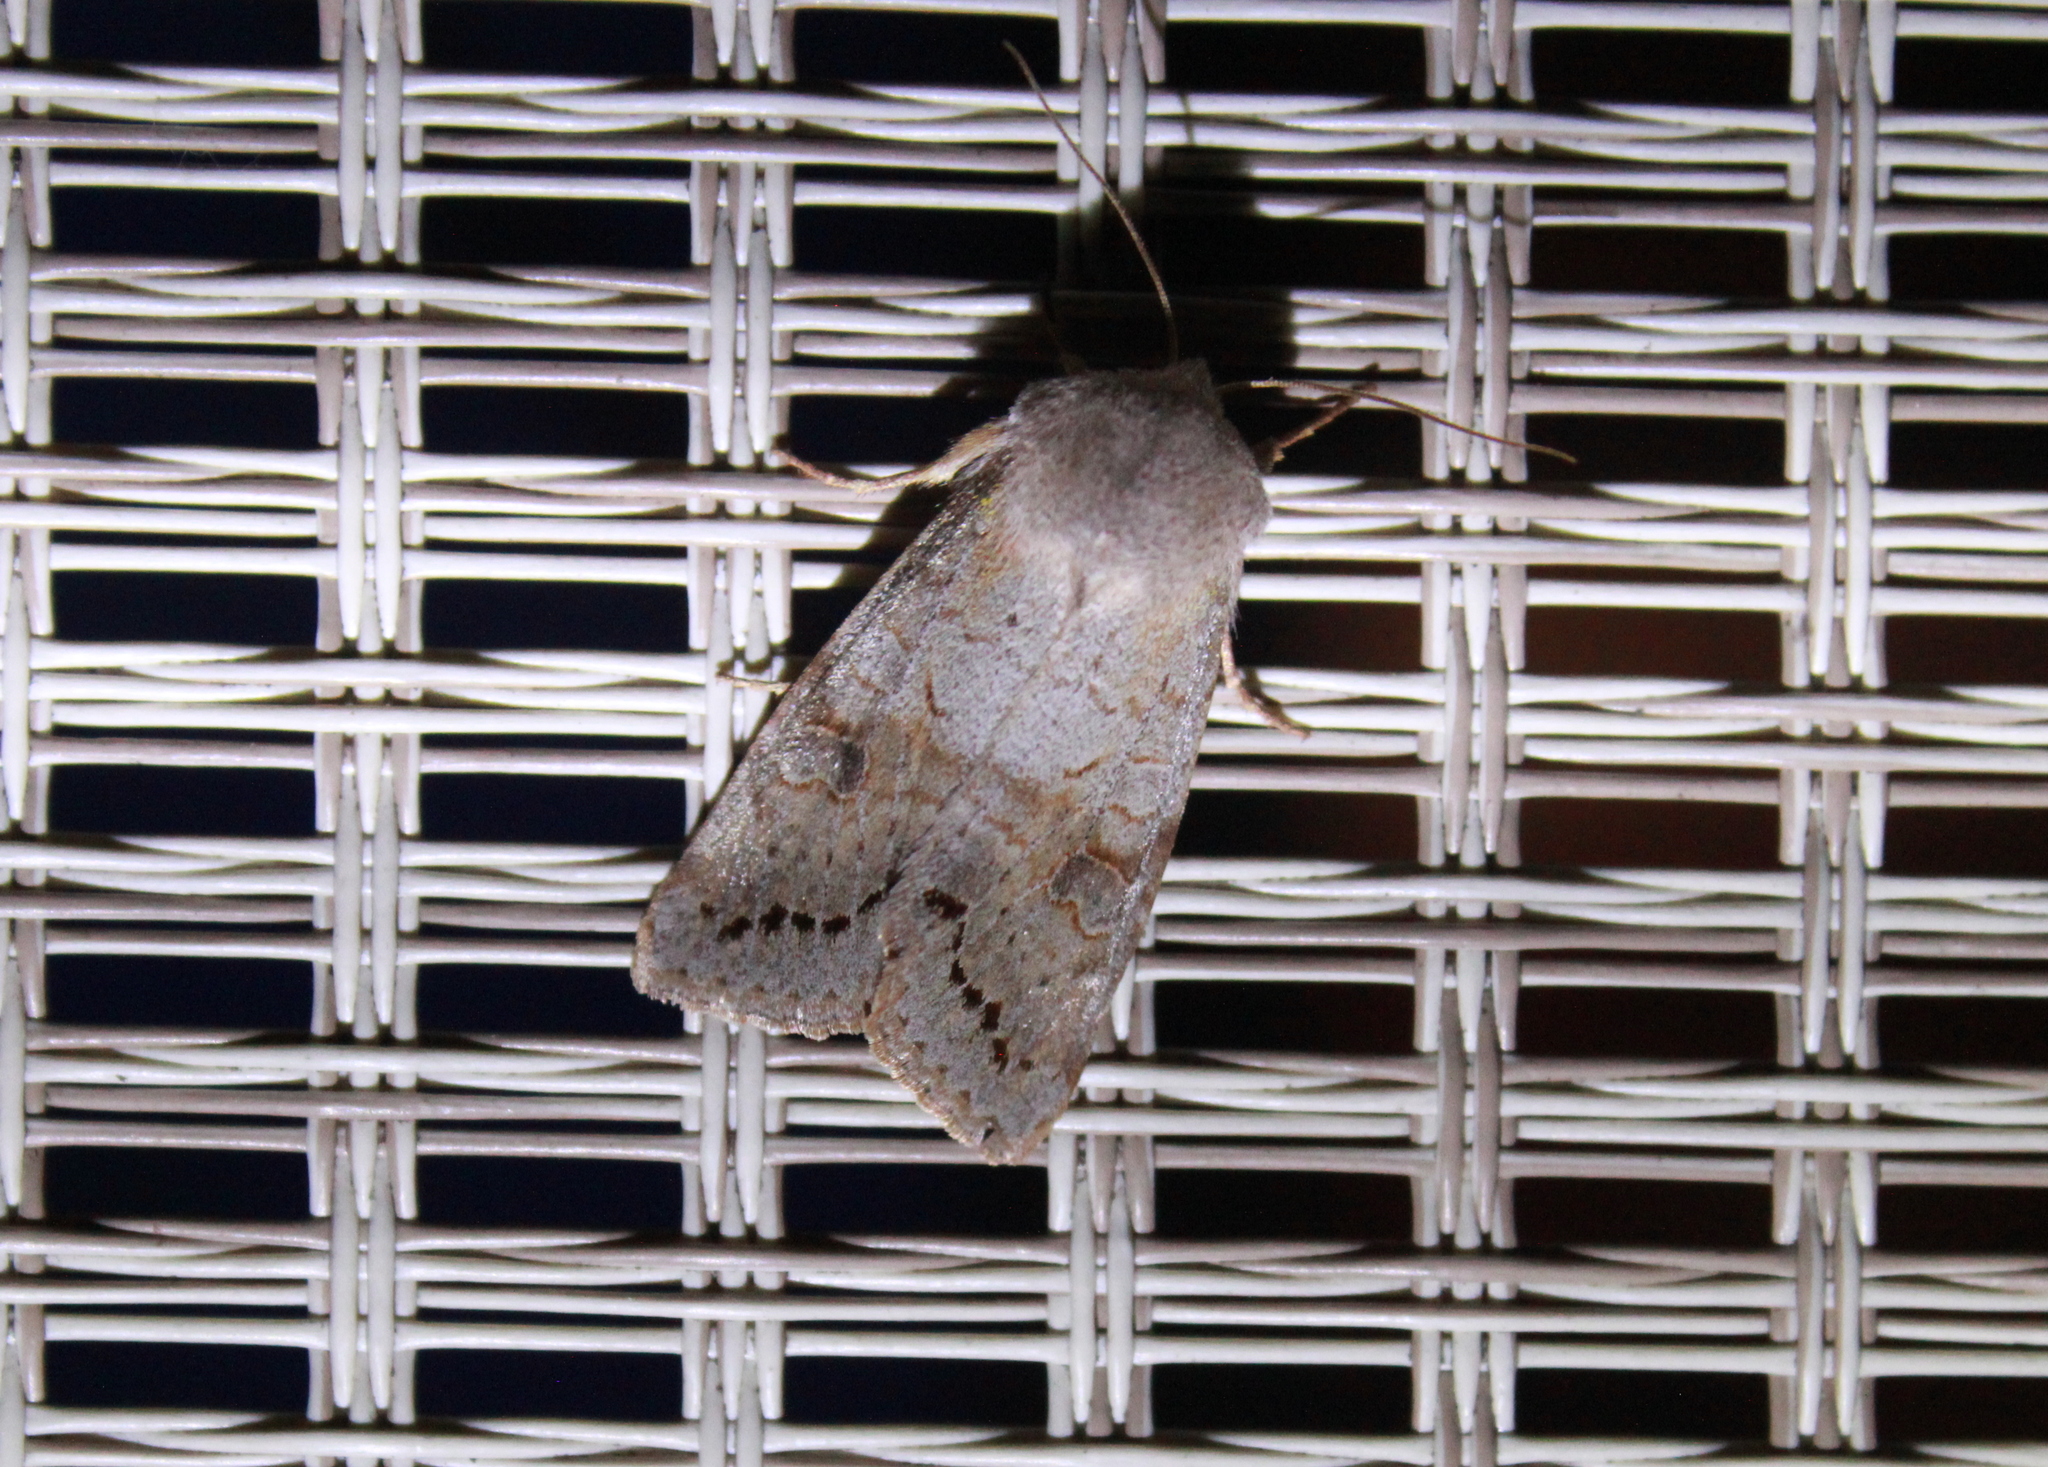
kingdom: Animalia
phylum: Arthropoda
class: Insecta
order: Lepidoptera
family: Noctuidae
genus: Orthosia
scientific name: Orthosia revicta
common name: Rusty whitesided caterpillar
